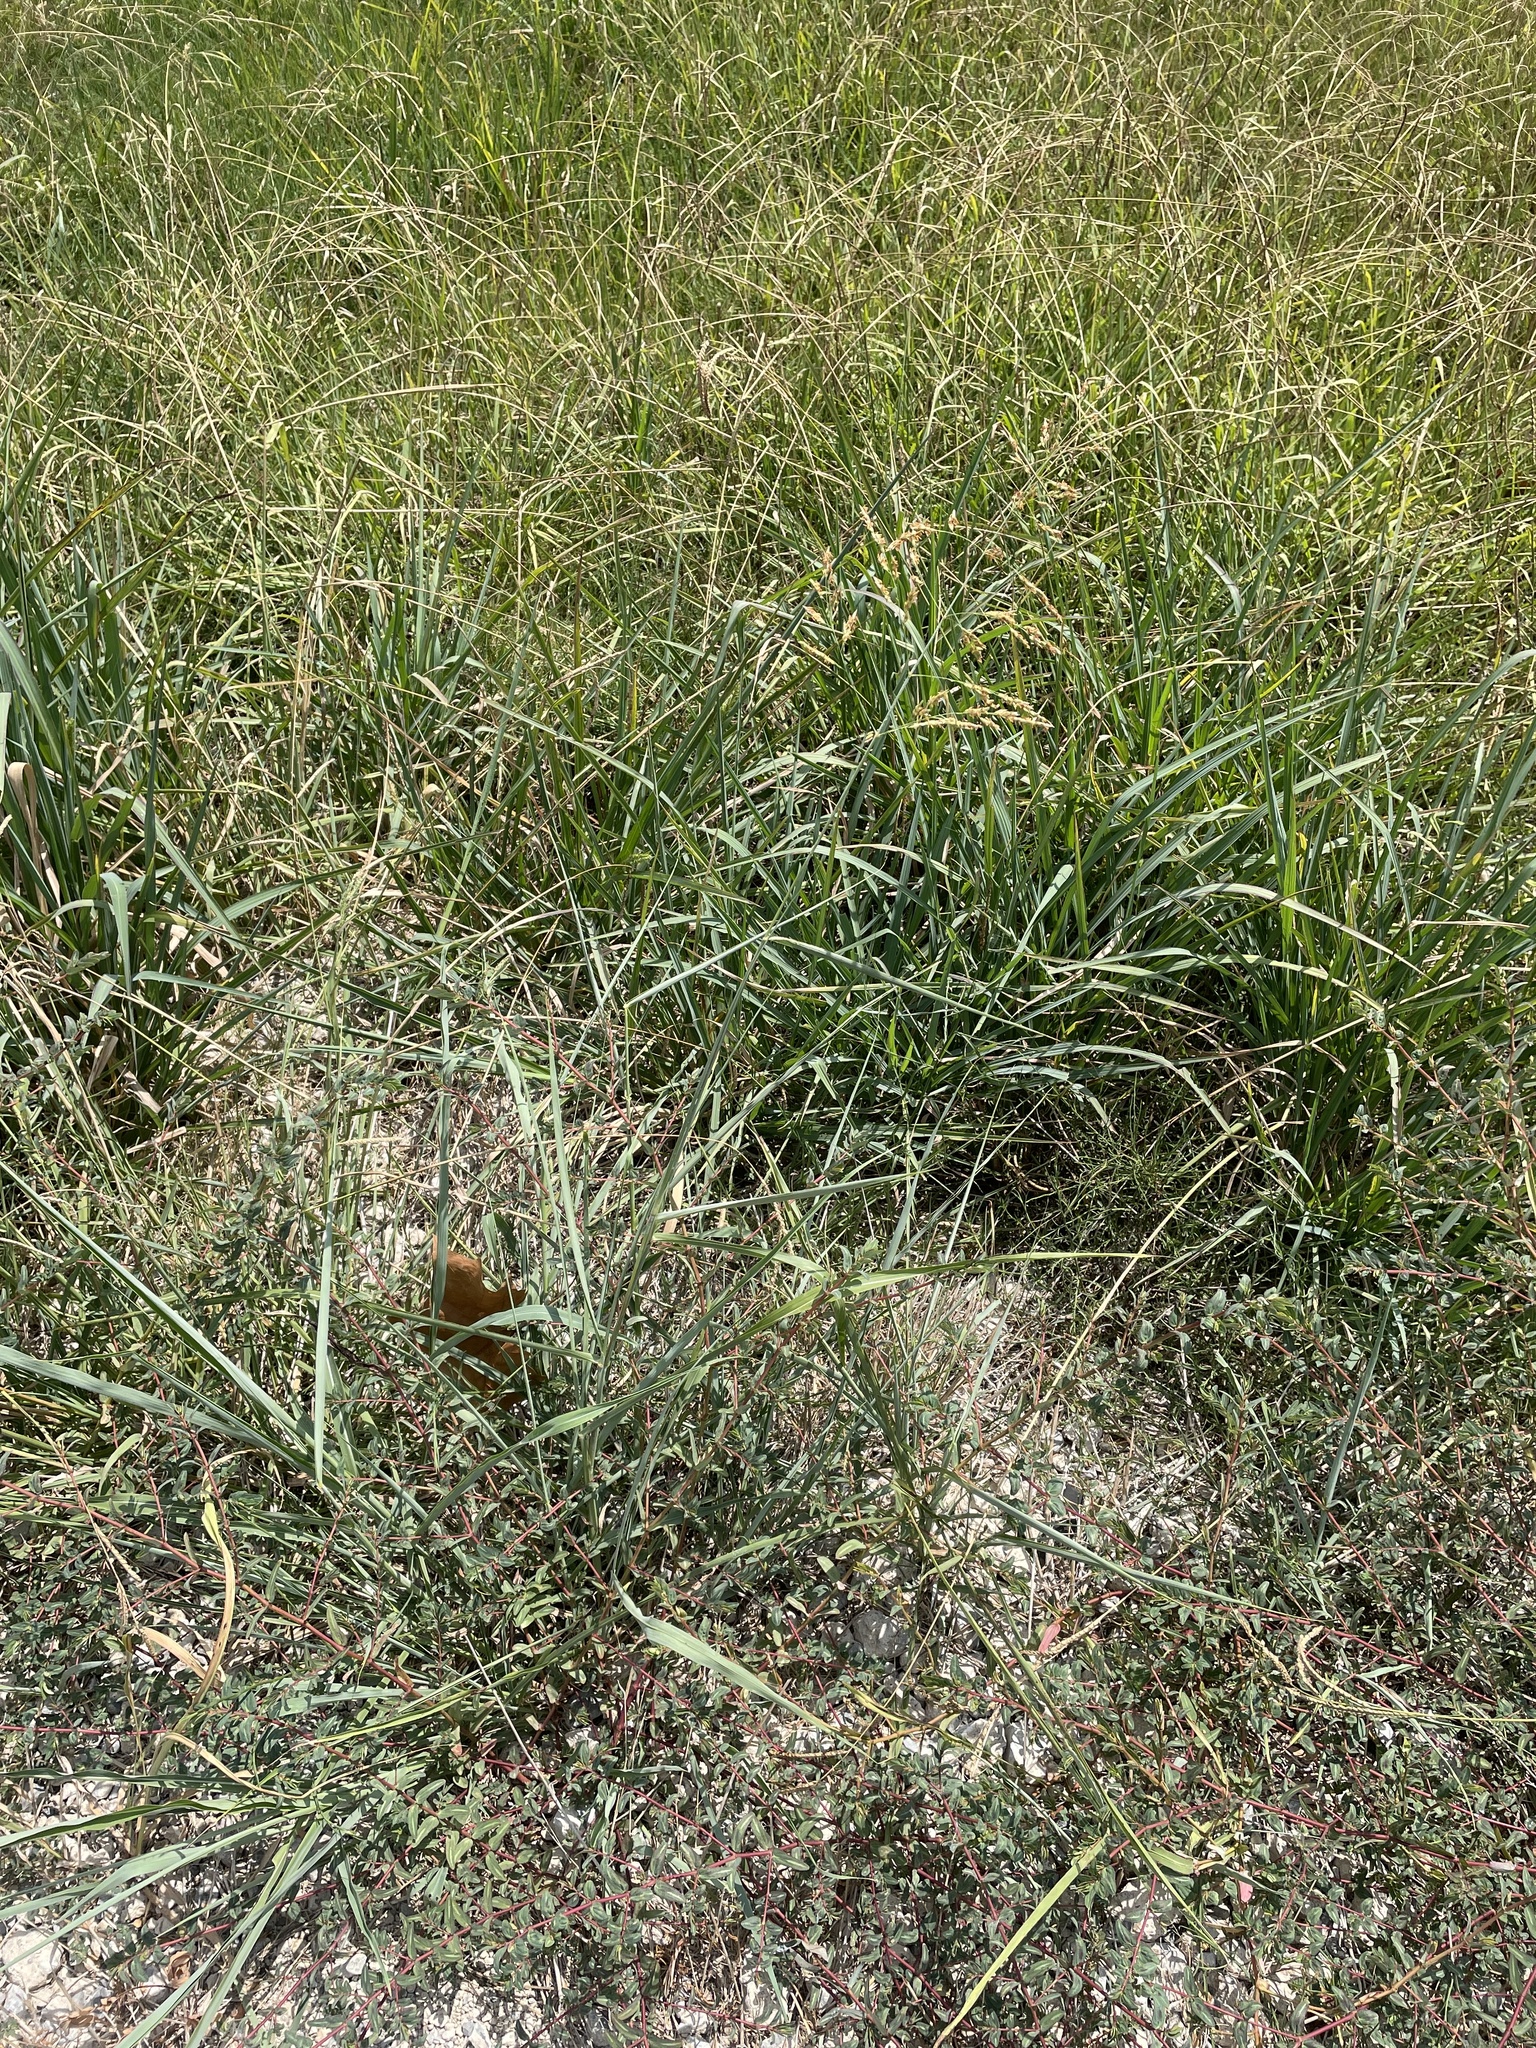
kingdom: Plantae
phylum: Tracheophyta
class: Liliopsida
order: Poales
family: Poaceae
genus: Sorghum
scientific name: Sorghum halepense
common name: Johnson-grass
